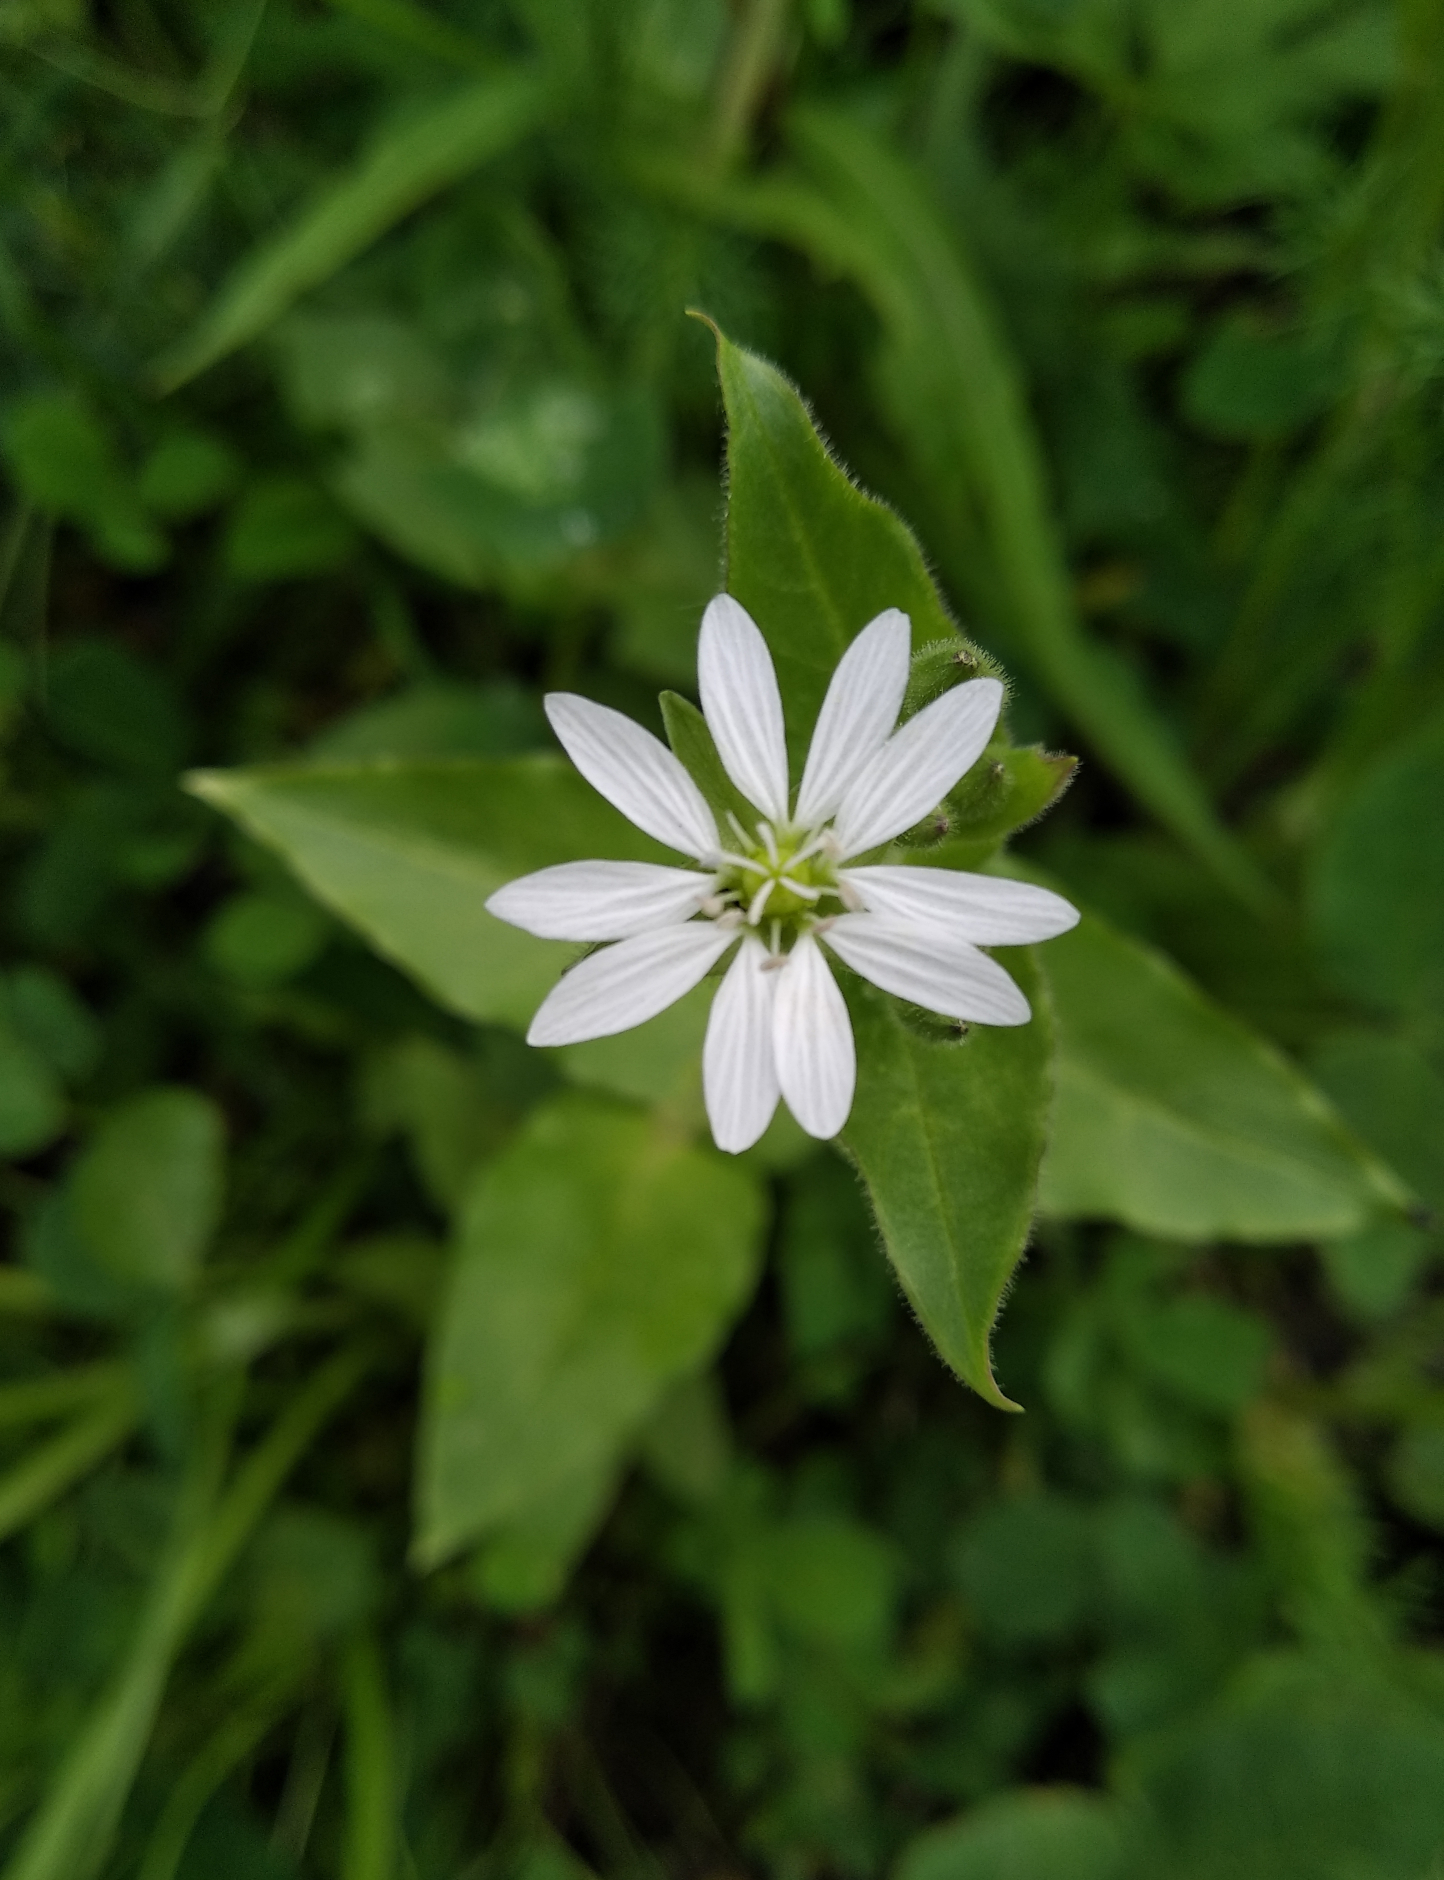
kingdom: Plantae
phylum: Tracheophyta
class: Magnoliopsida
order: Caryophyllales
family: Caryophyllaceae
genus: Stellaria
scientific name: Stellaria aquatica
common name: Water chickweed
